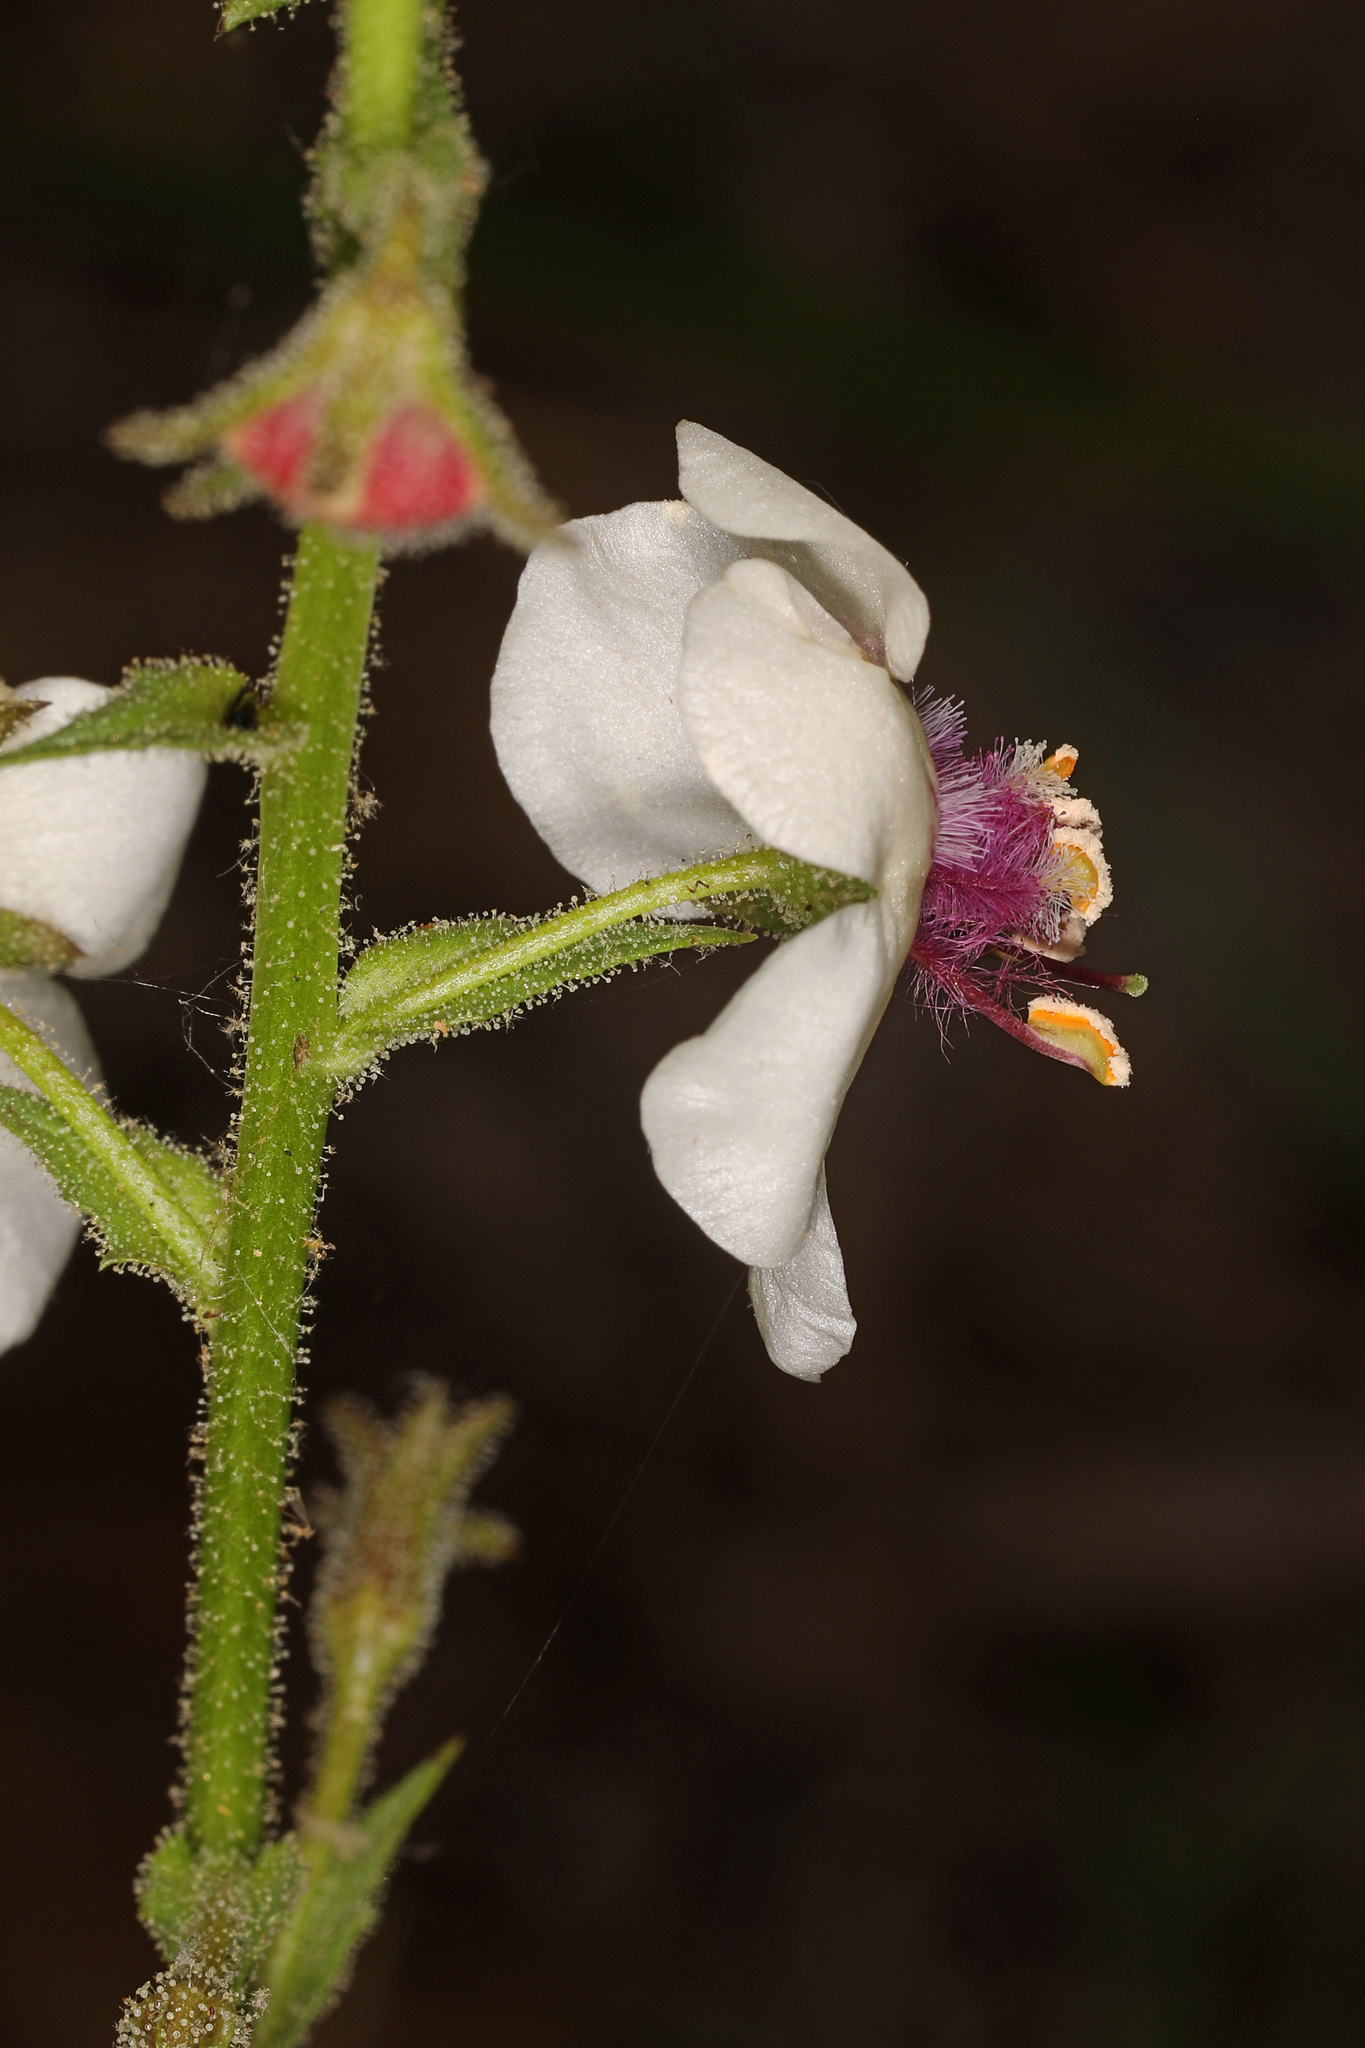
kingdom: Plantae
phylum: Tracheophyta
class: Magnoliopsida
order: Lamiales
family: Scrophulariaceae
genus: Verbascum
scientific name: Verbascum blattaria
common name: Moth mullein
